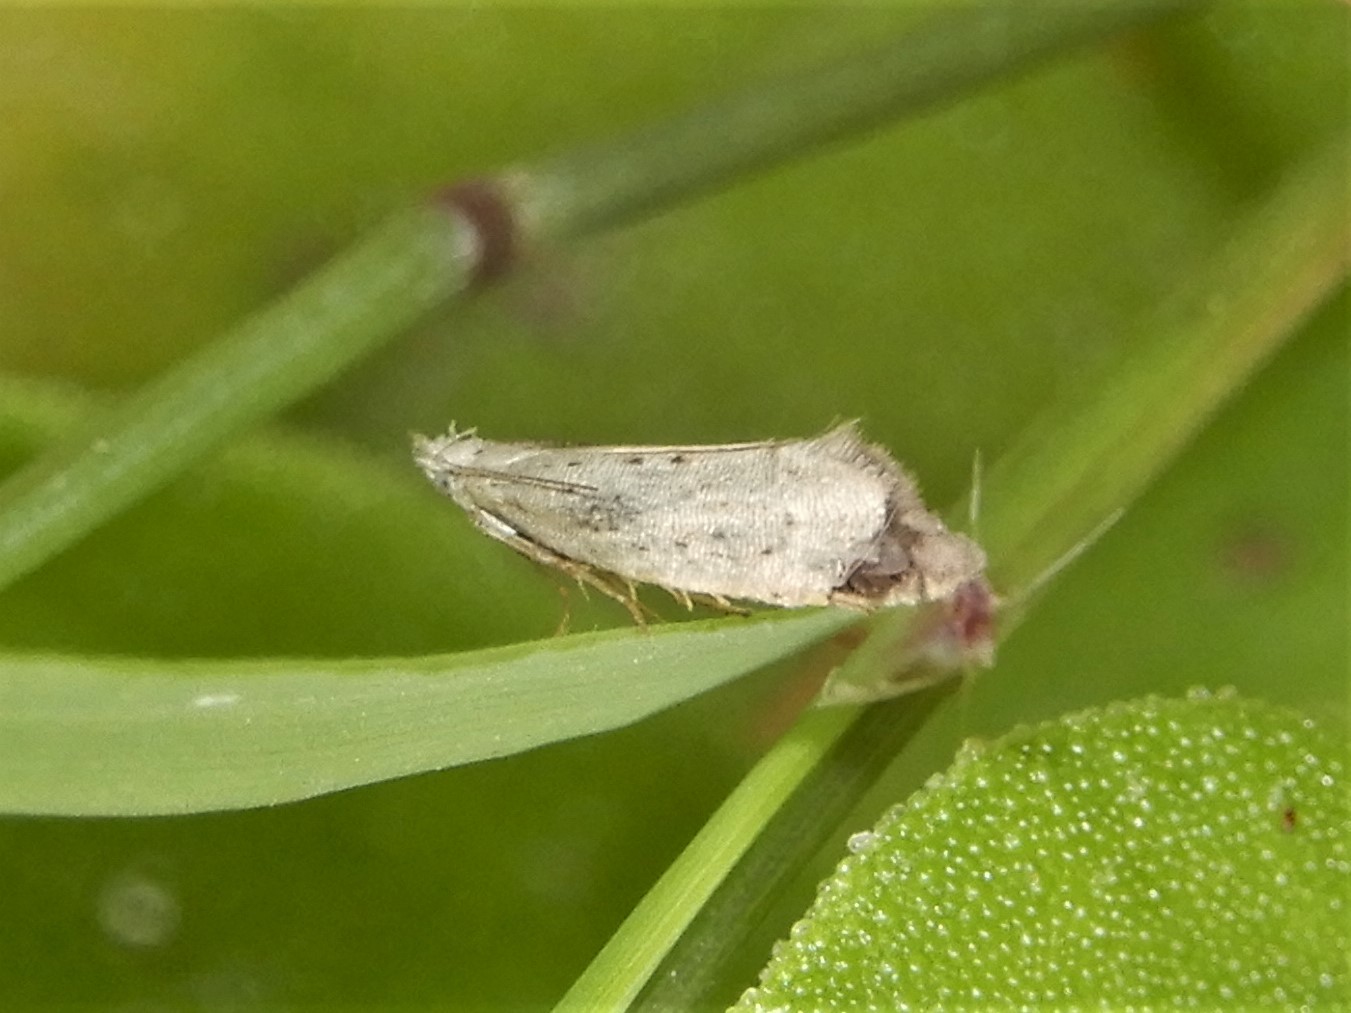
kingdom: Animalia
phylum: Arthropoda
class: Insecta
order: Lepidoptera
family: Glyphipterigidae
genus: Glyphipterix
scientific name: Glyphipterix achlyoessa
